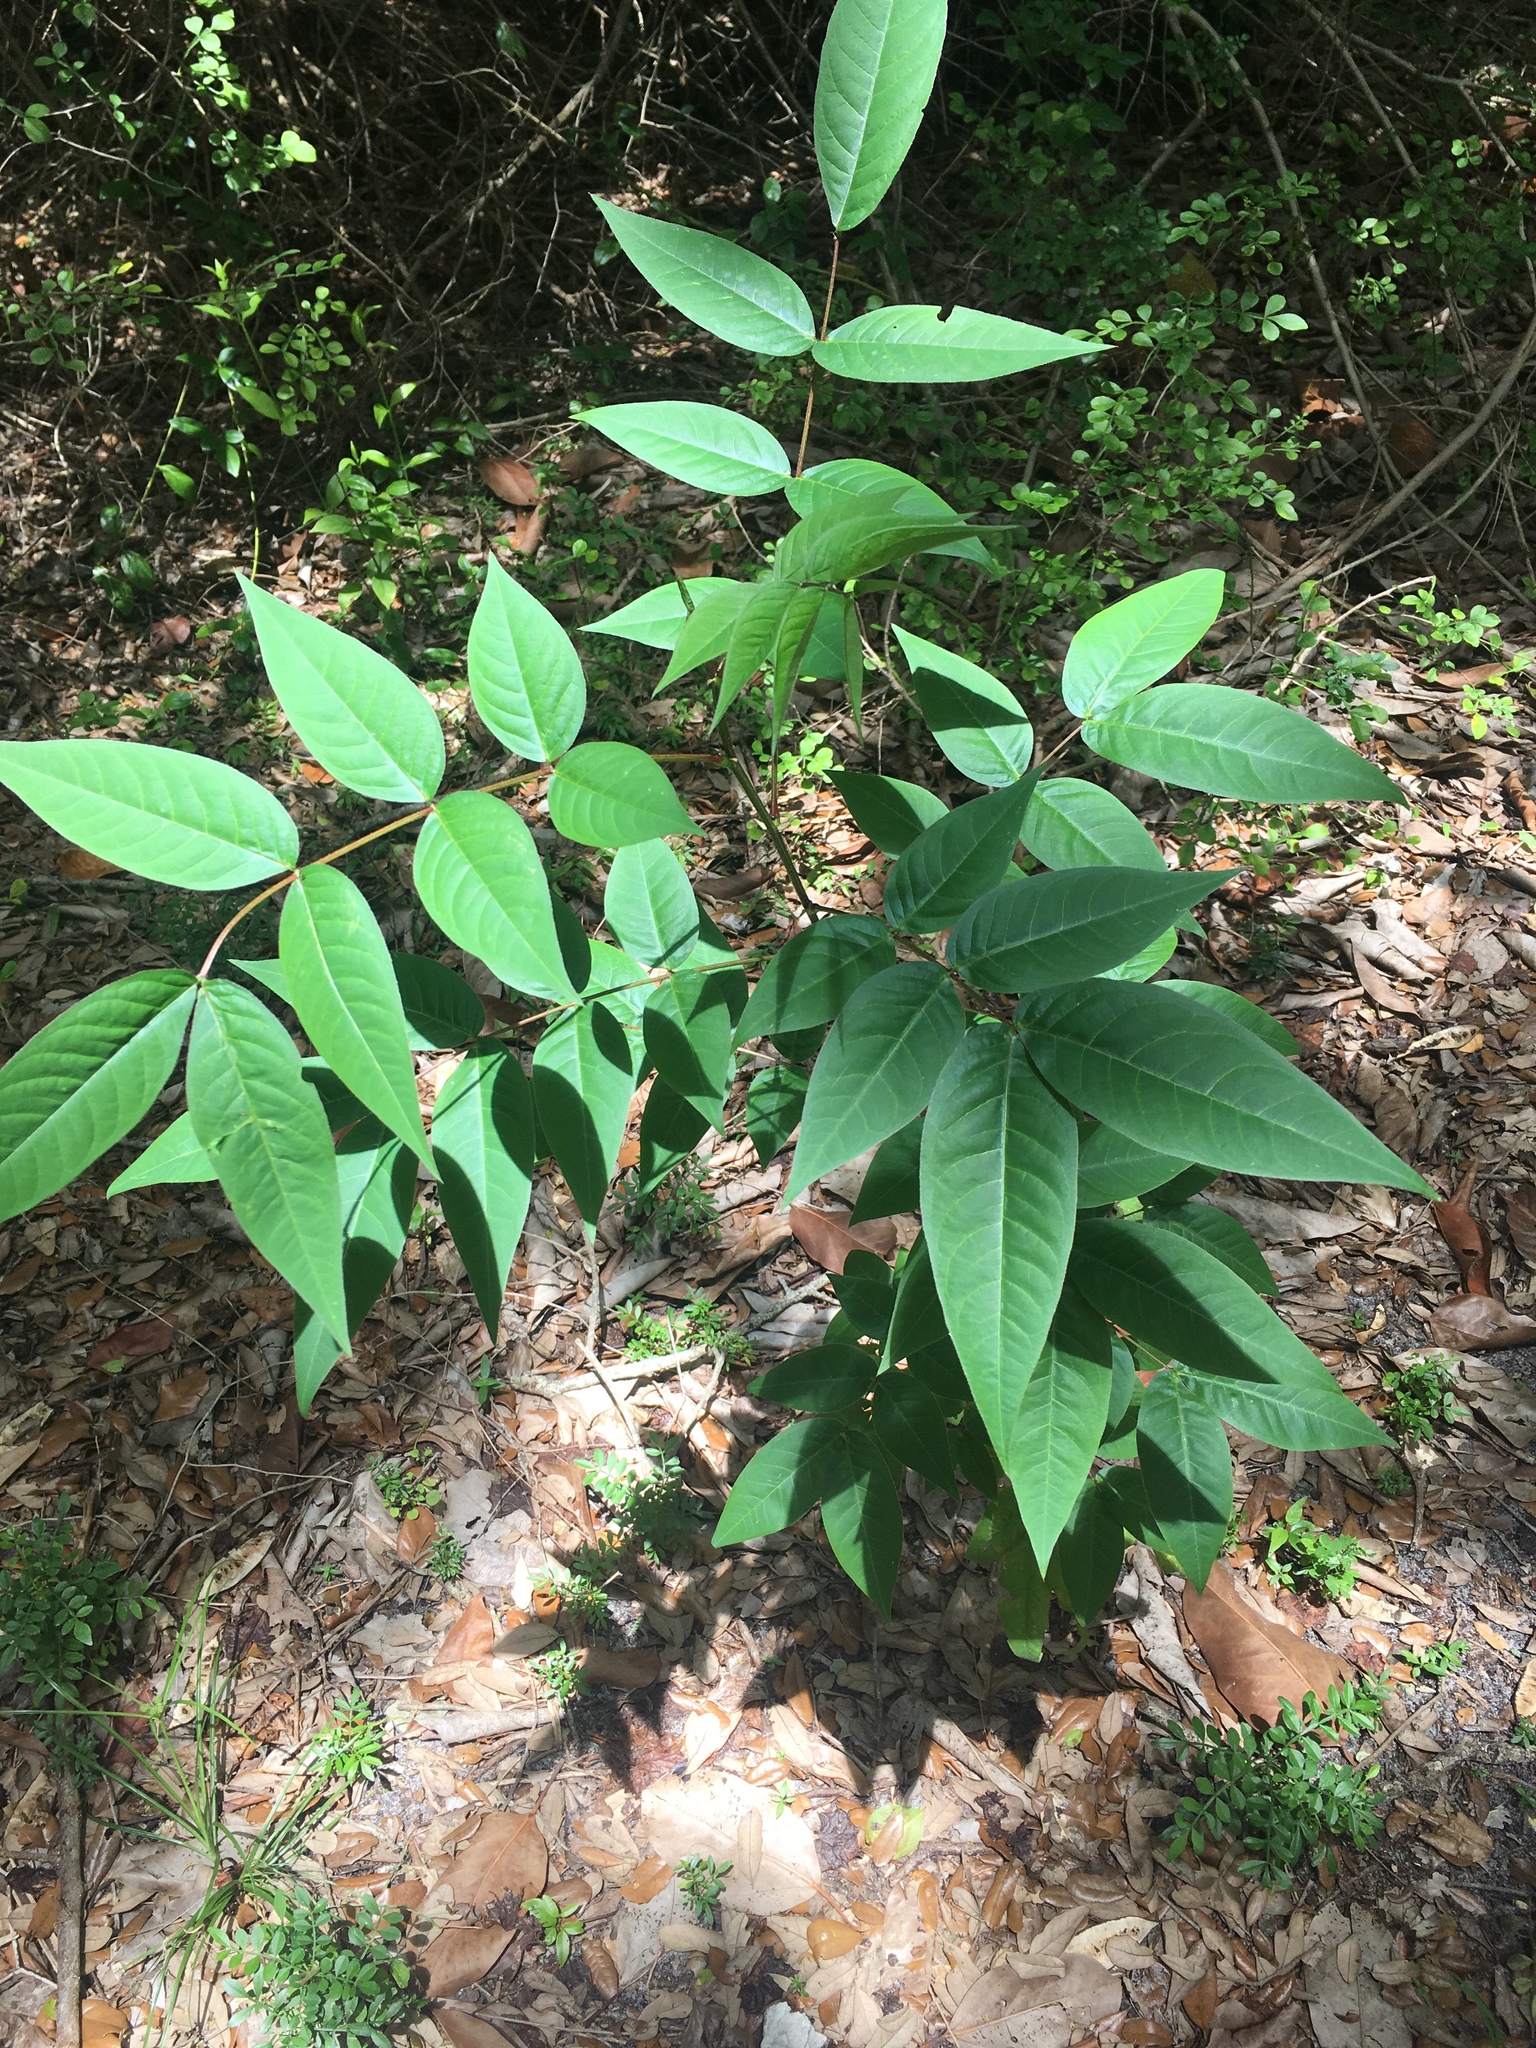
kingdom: Plantae
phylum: Tracheophyta
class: Magnoliopsida
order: Fabales
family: Fabaceae
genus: Senna
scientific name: Senna occidentalis
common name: Septicweed
